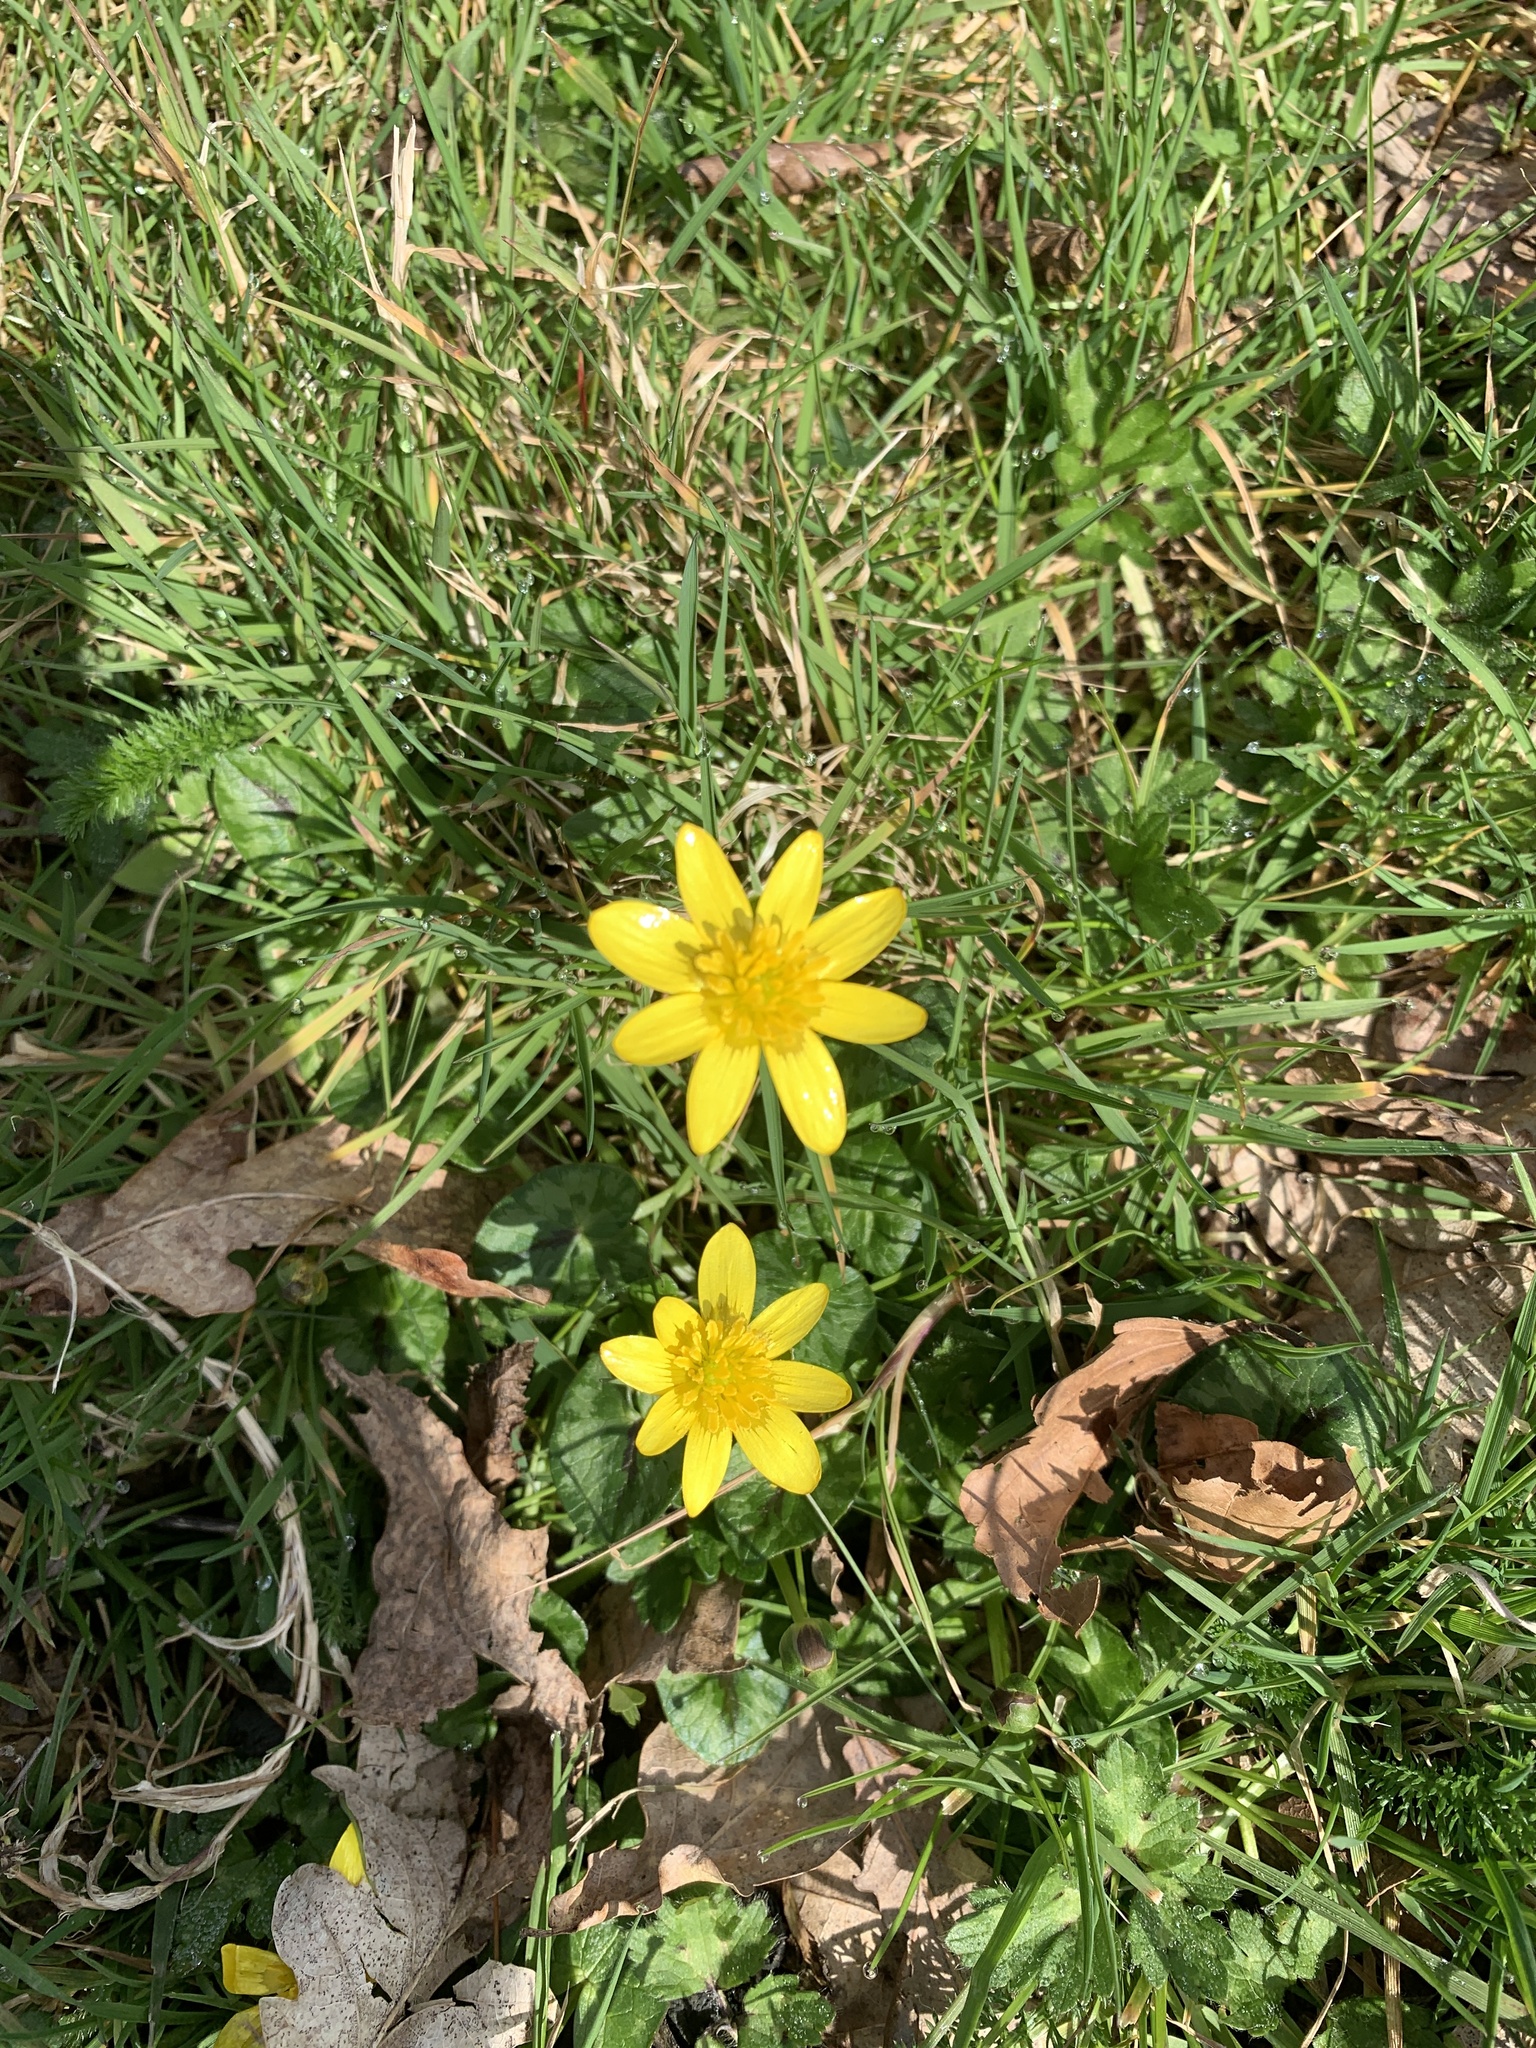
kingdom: Plantae
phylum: Tracheophyta
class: Magnoliopsida
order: Ranunculales
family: Ranunculaceae
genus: Ficaria
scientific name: Ficaria verna
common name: Lesser celandine
